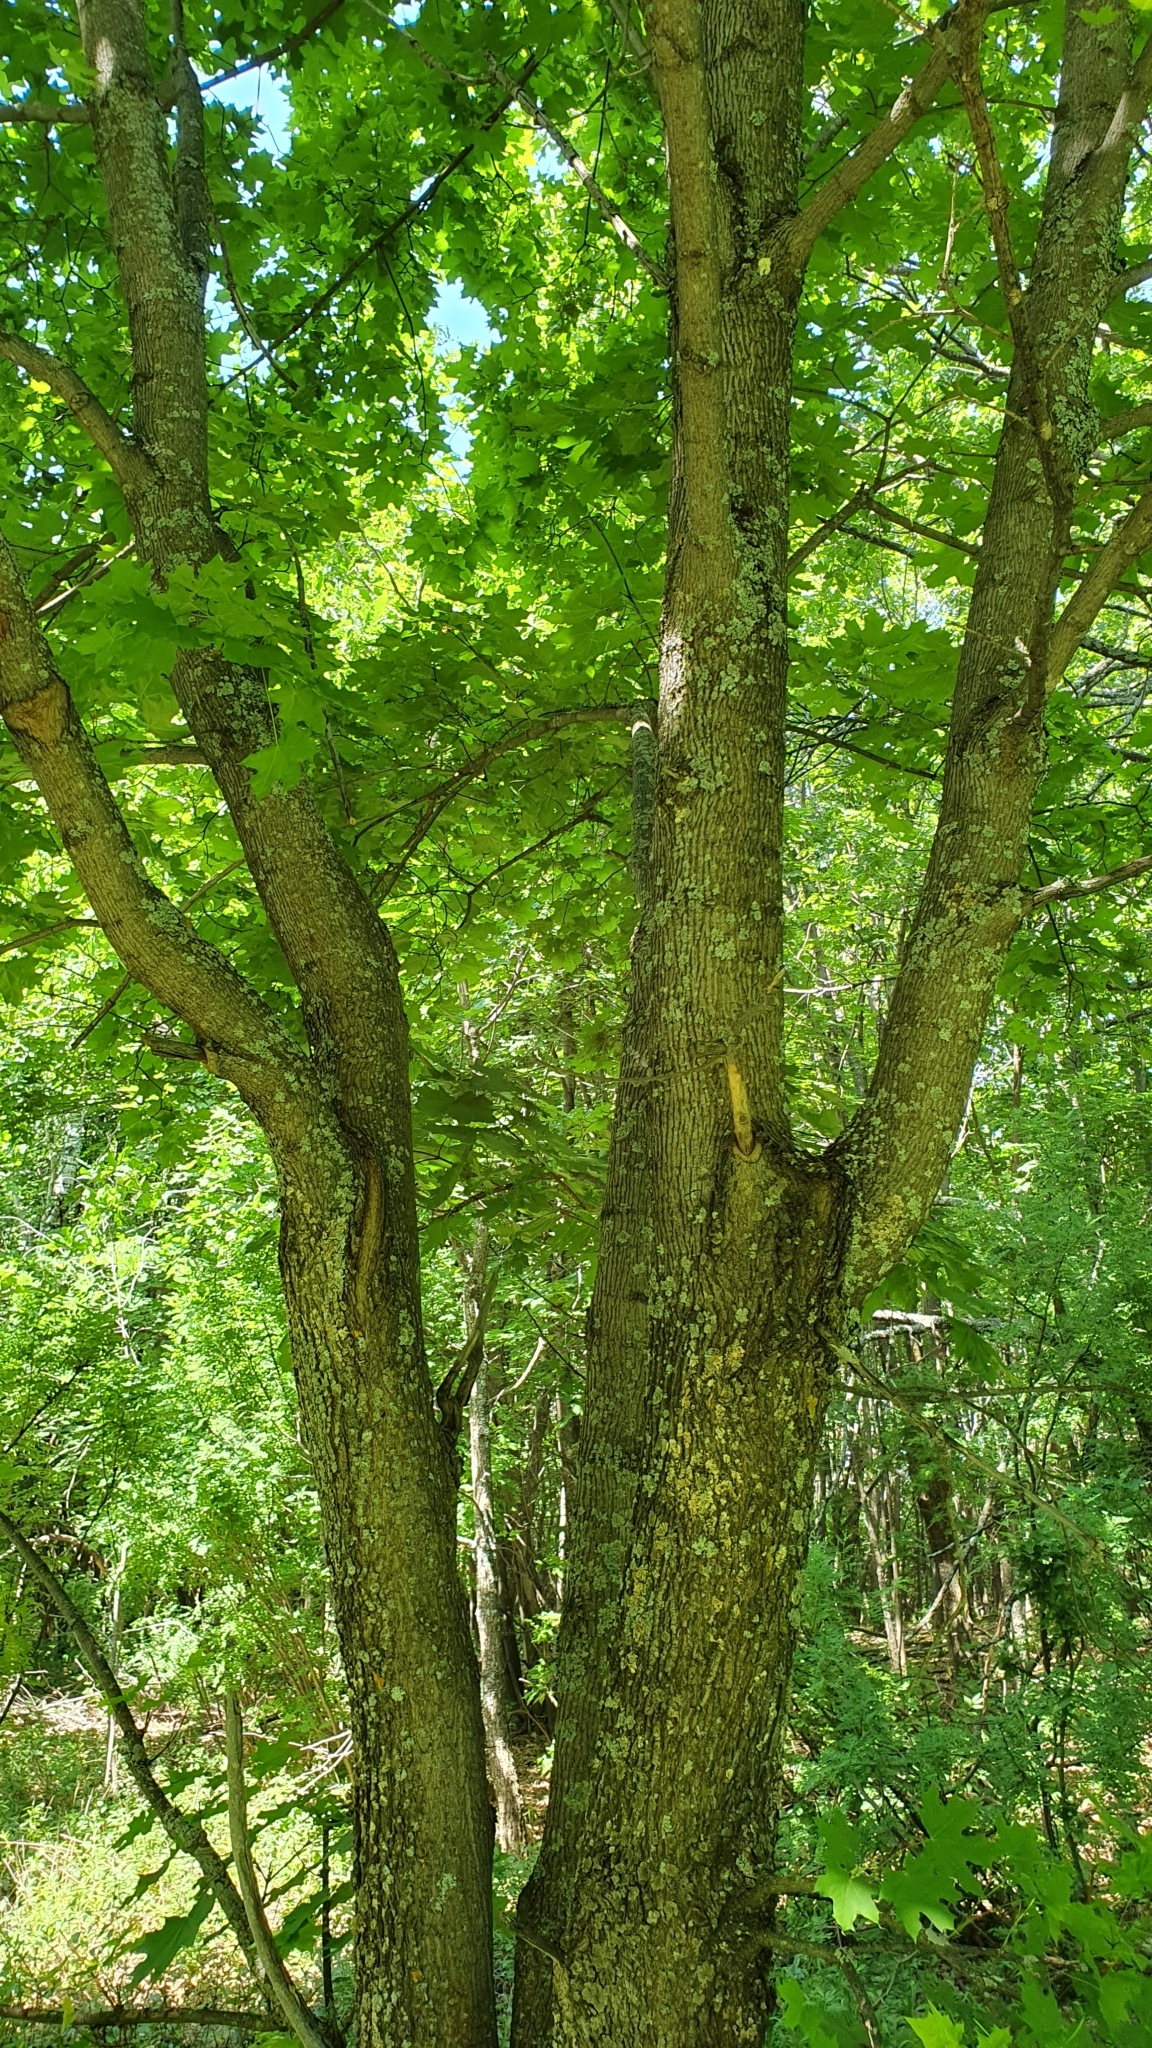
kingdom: Plantae
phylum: Tracheophyta
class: Magnoliopsida
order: Sapindales
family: Sapindaceae
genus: Acer
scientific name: Acer platanoides
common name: Norway maple
